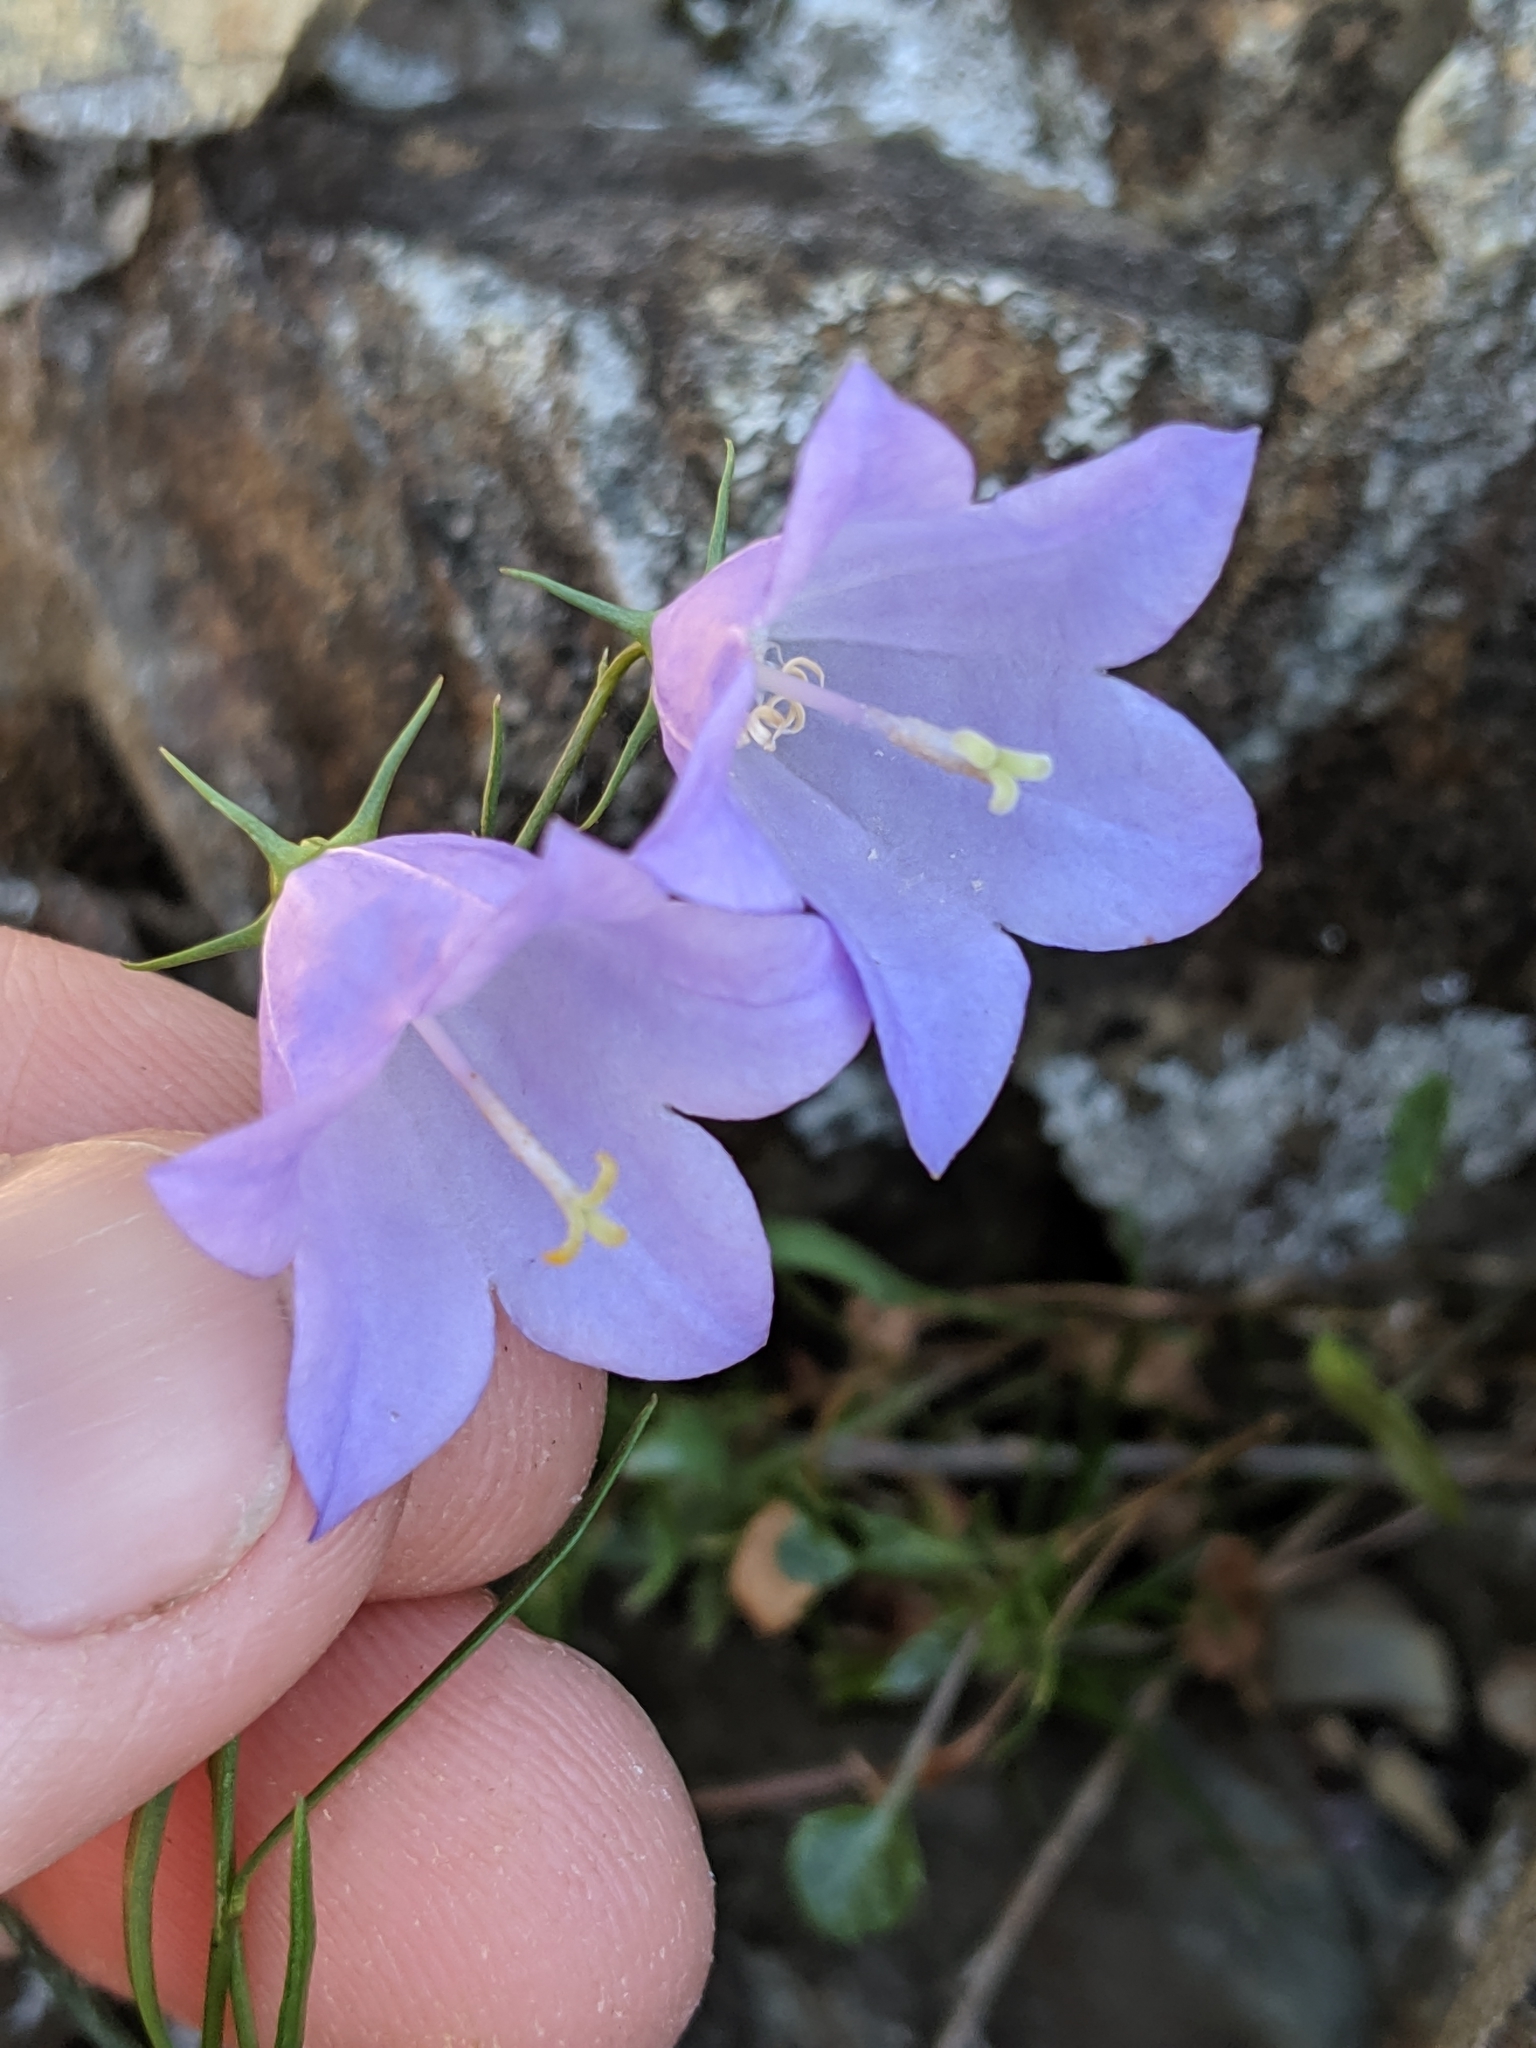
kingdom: Plantae
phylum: Tracheophyta
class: Magnoliopsida
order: Asterales
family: Campanulaceae
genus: Campanula
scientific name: Campanula alaskana
